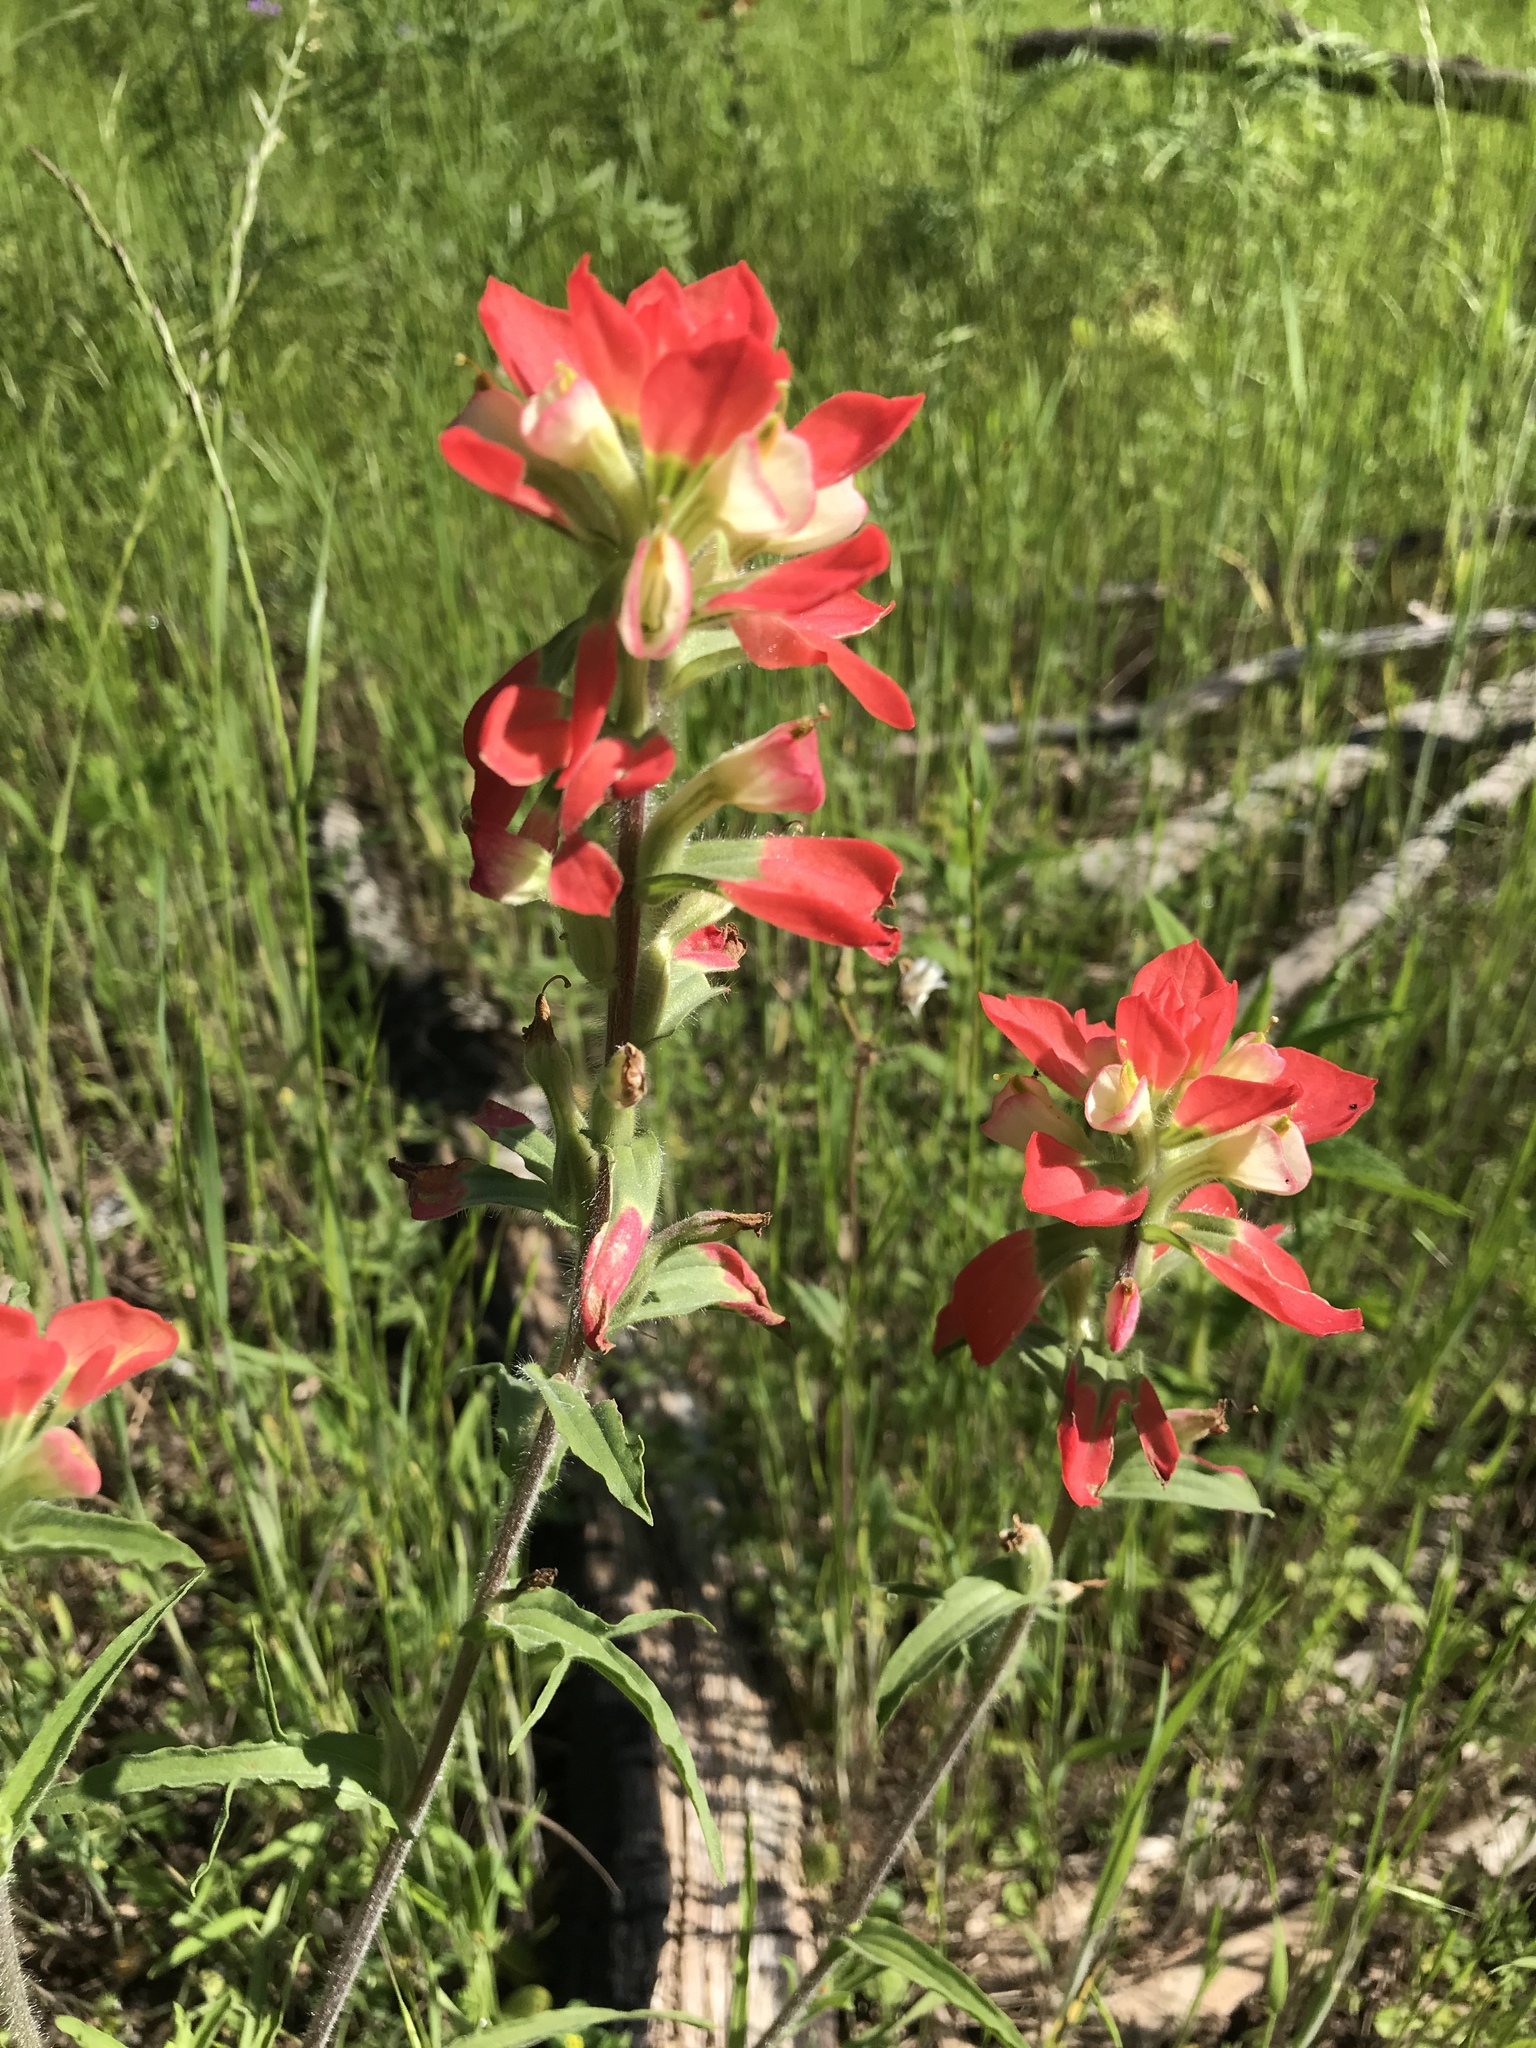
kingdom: Plantae
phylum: Tracheophyta
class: Magnoliopsida
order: Lamiales
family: Orobanchaceae
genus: Castilleja
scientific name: Castilleja indivisa
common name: Texas paintbrush
